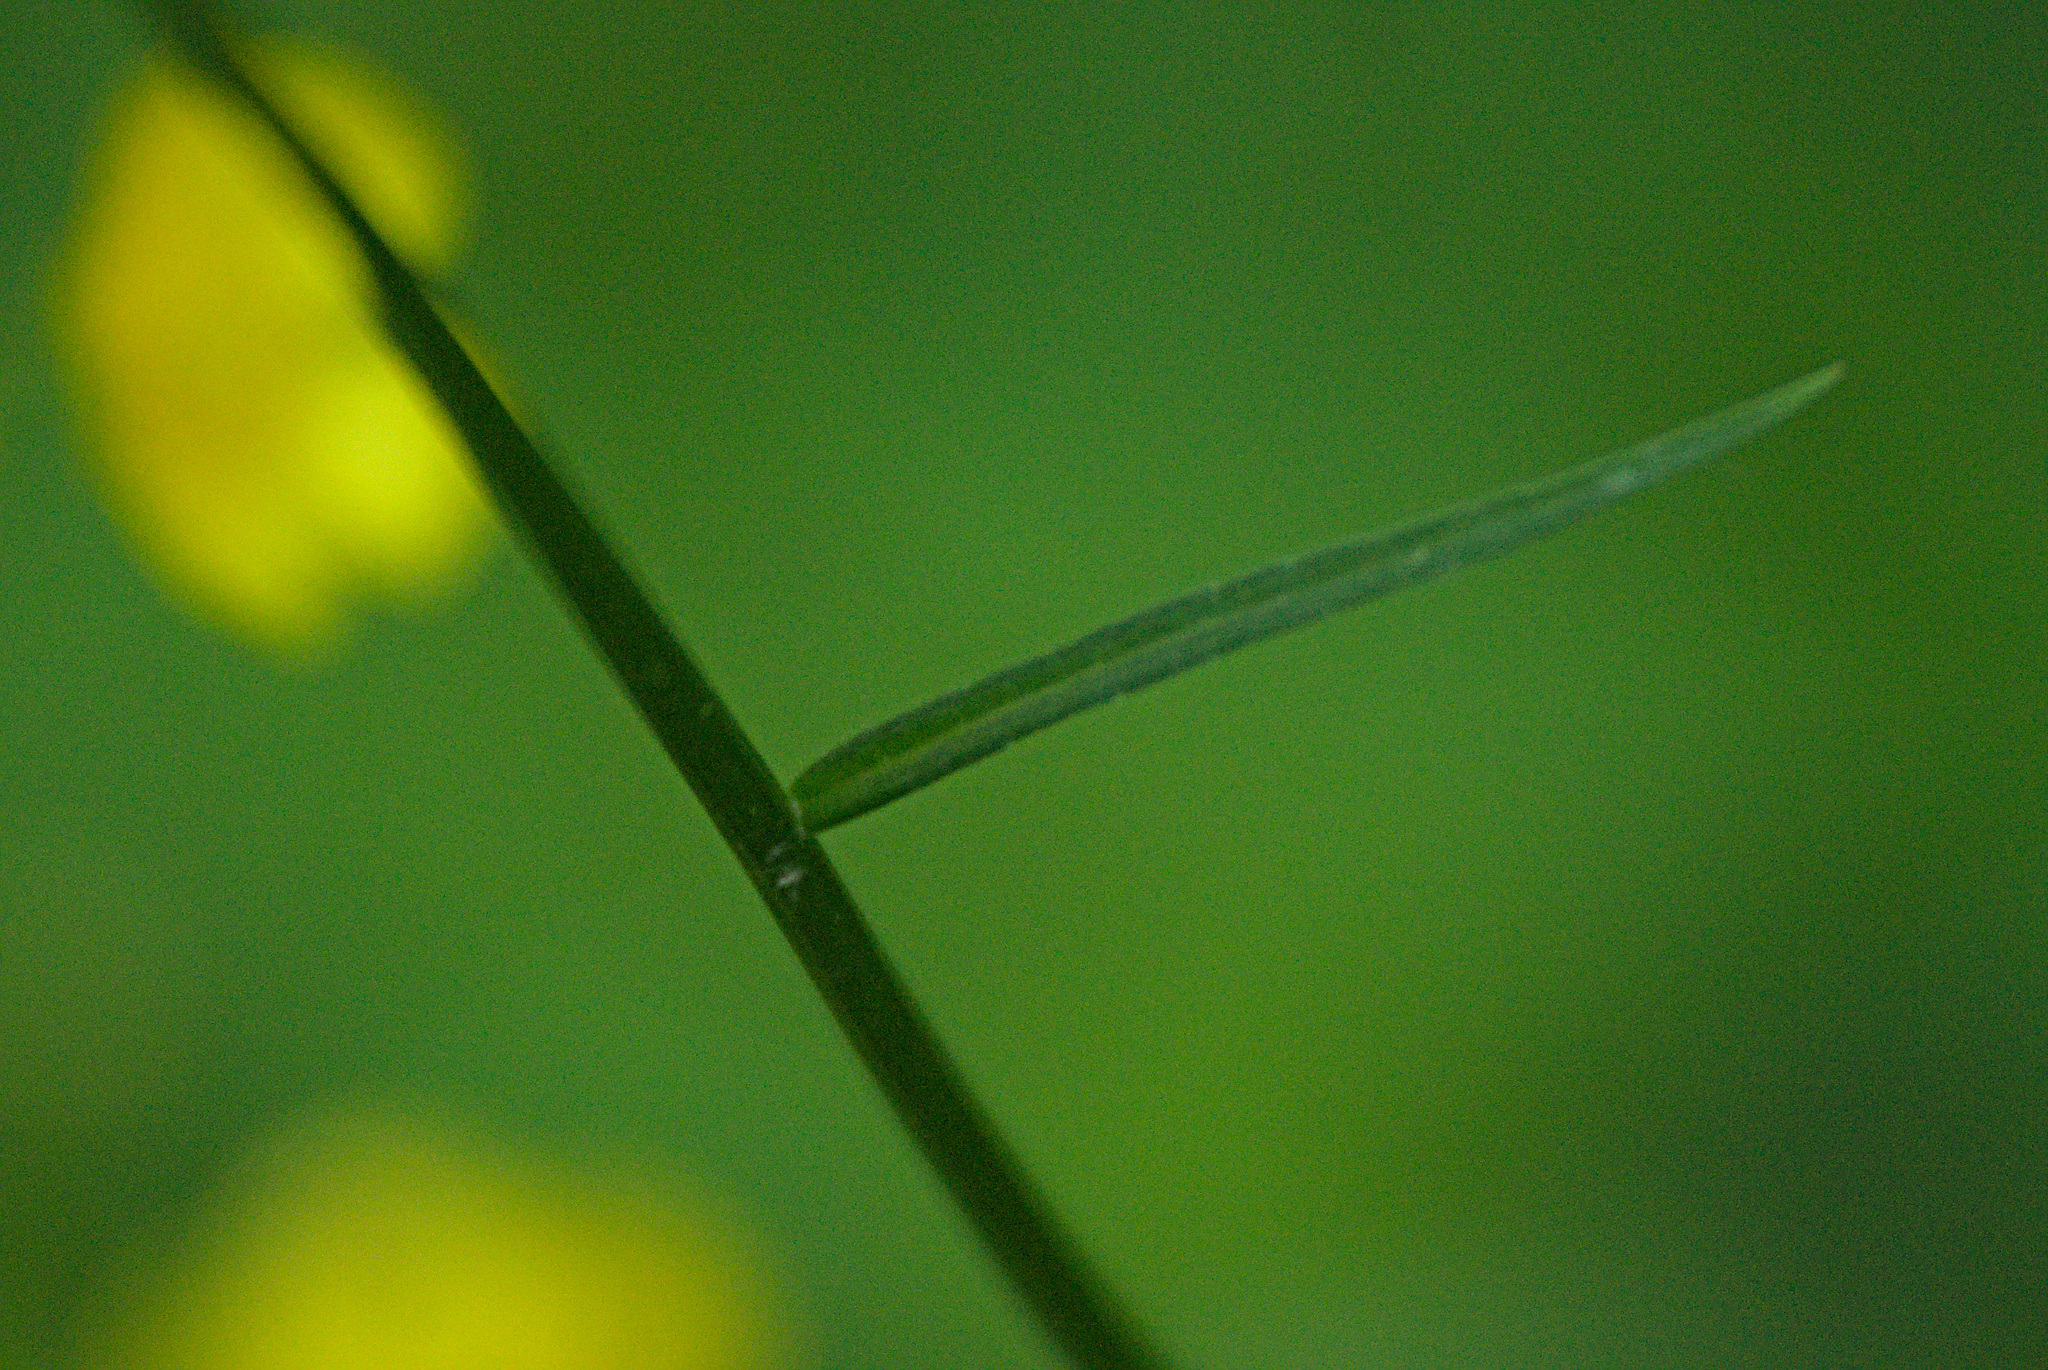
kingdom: Plantae
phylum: Tracheophyta
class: Magnoliopsida
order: Asterales
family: Campanulaceae
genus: Campanula
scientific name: Campanula stevenii
